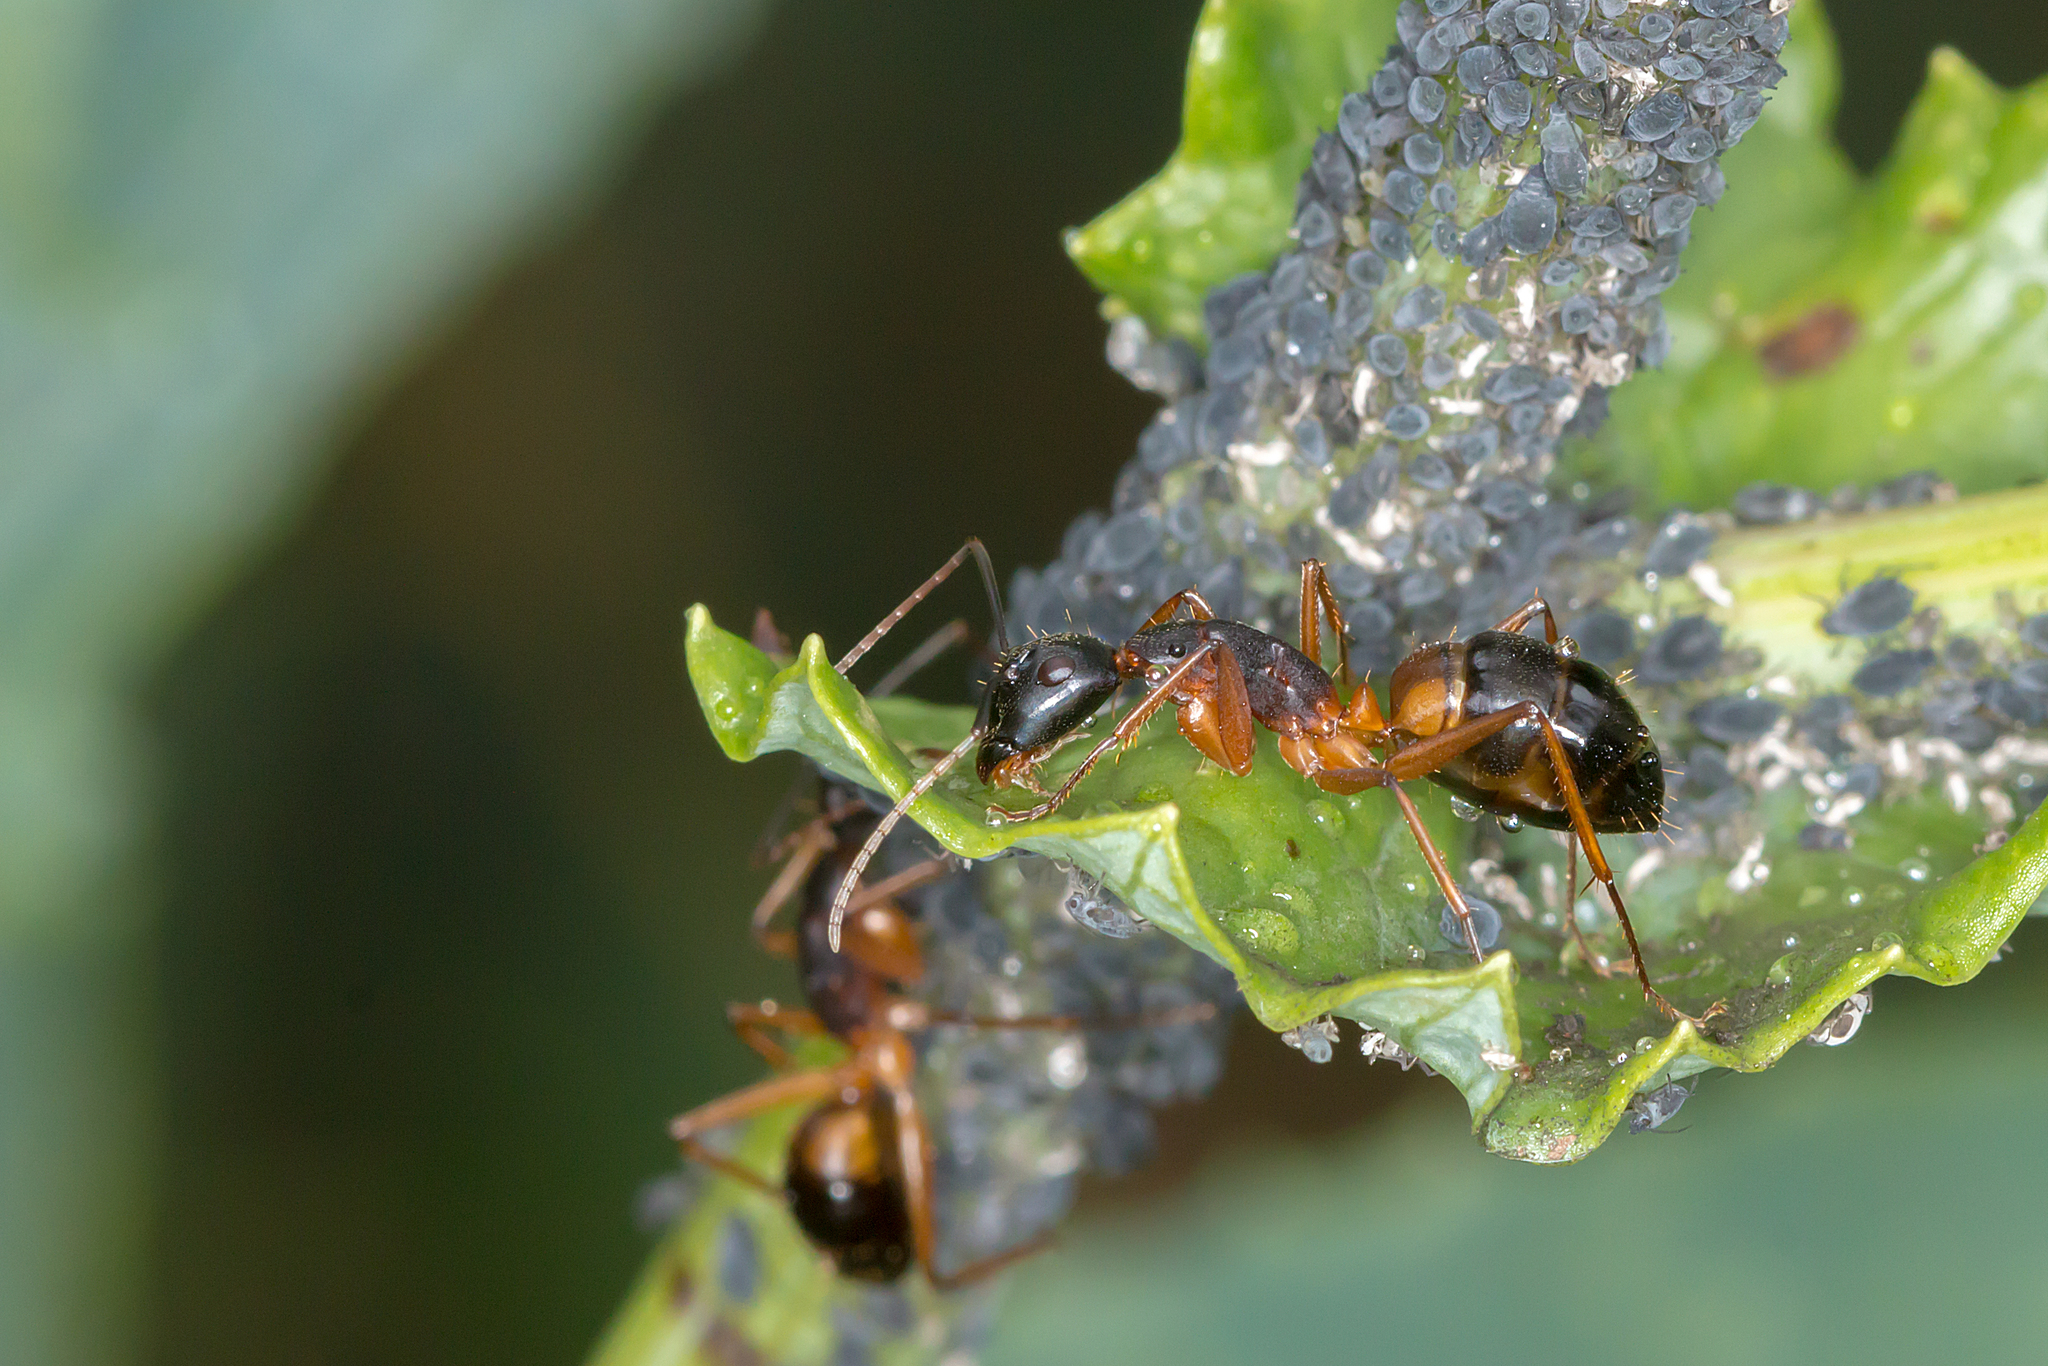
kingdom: Animalia
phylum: Arthropoda
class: Insecta
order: Hymenoptera
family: Formicidae
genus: Camponotus
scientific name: Camponotus consobrinus
